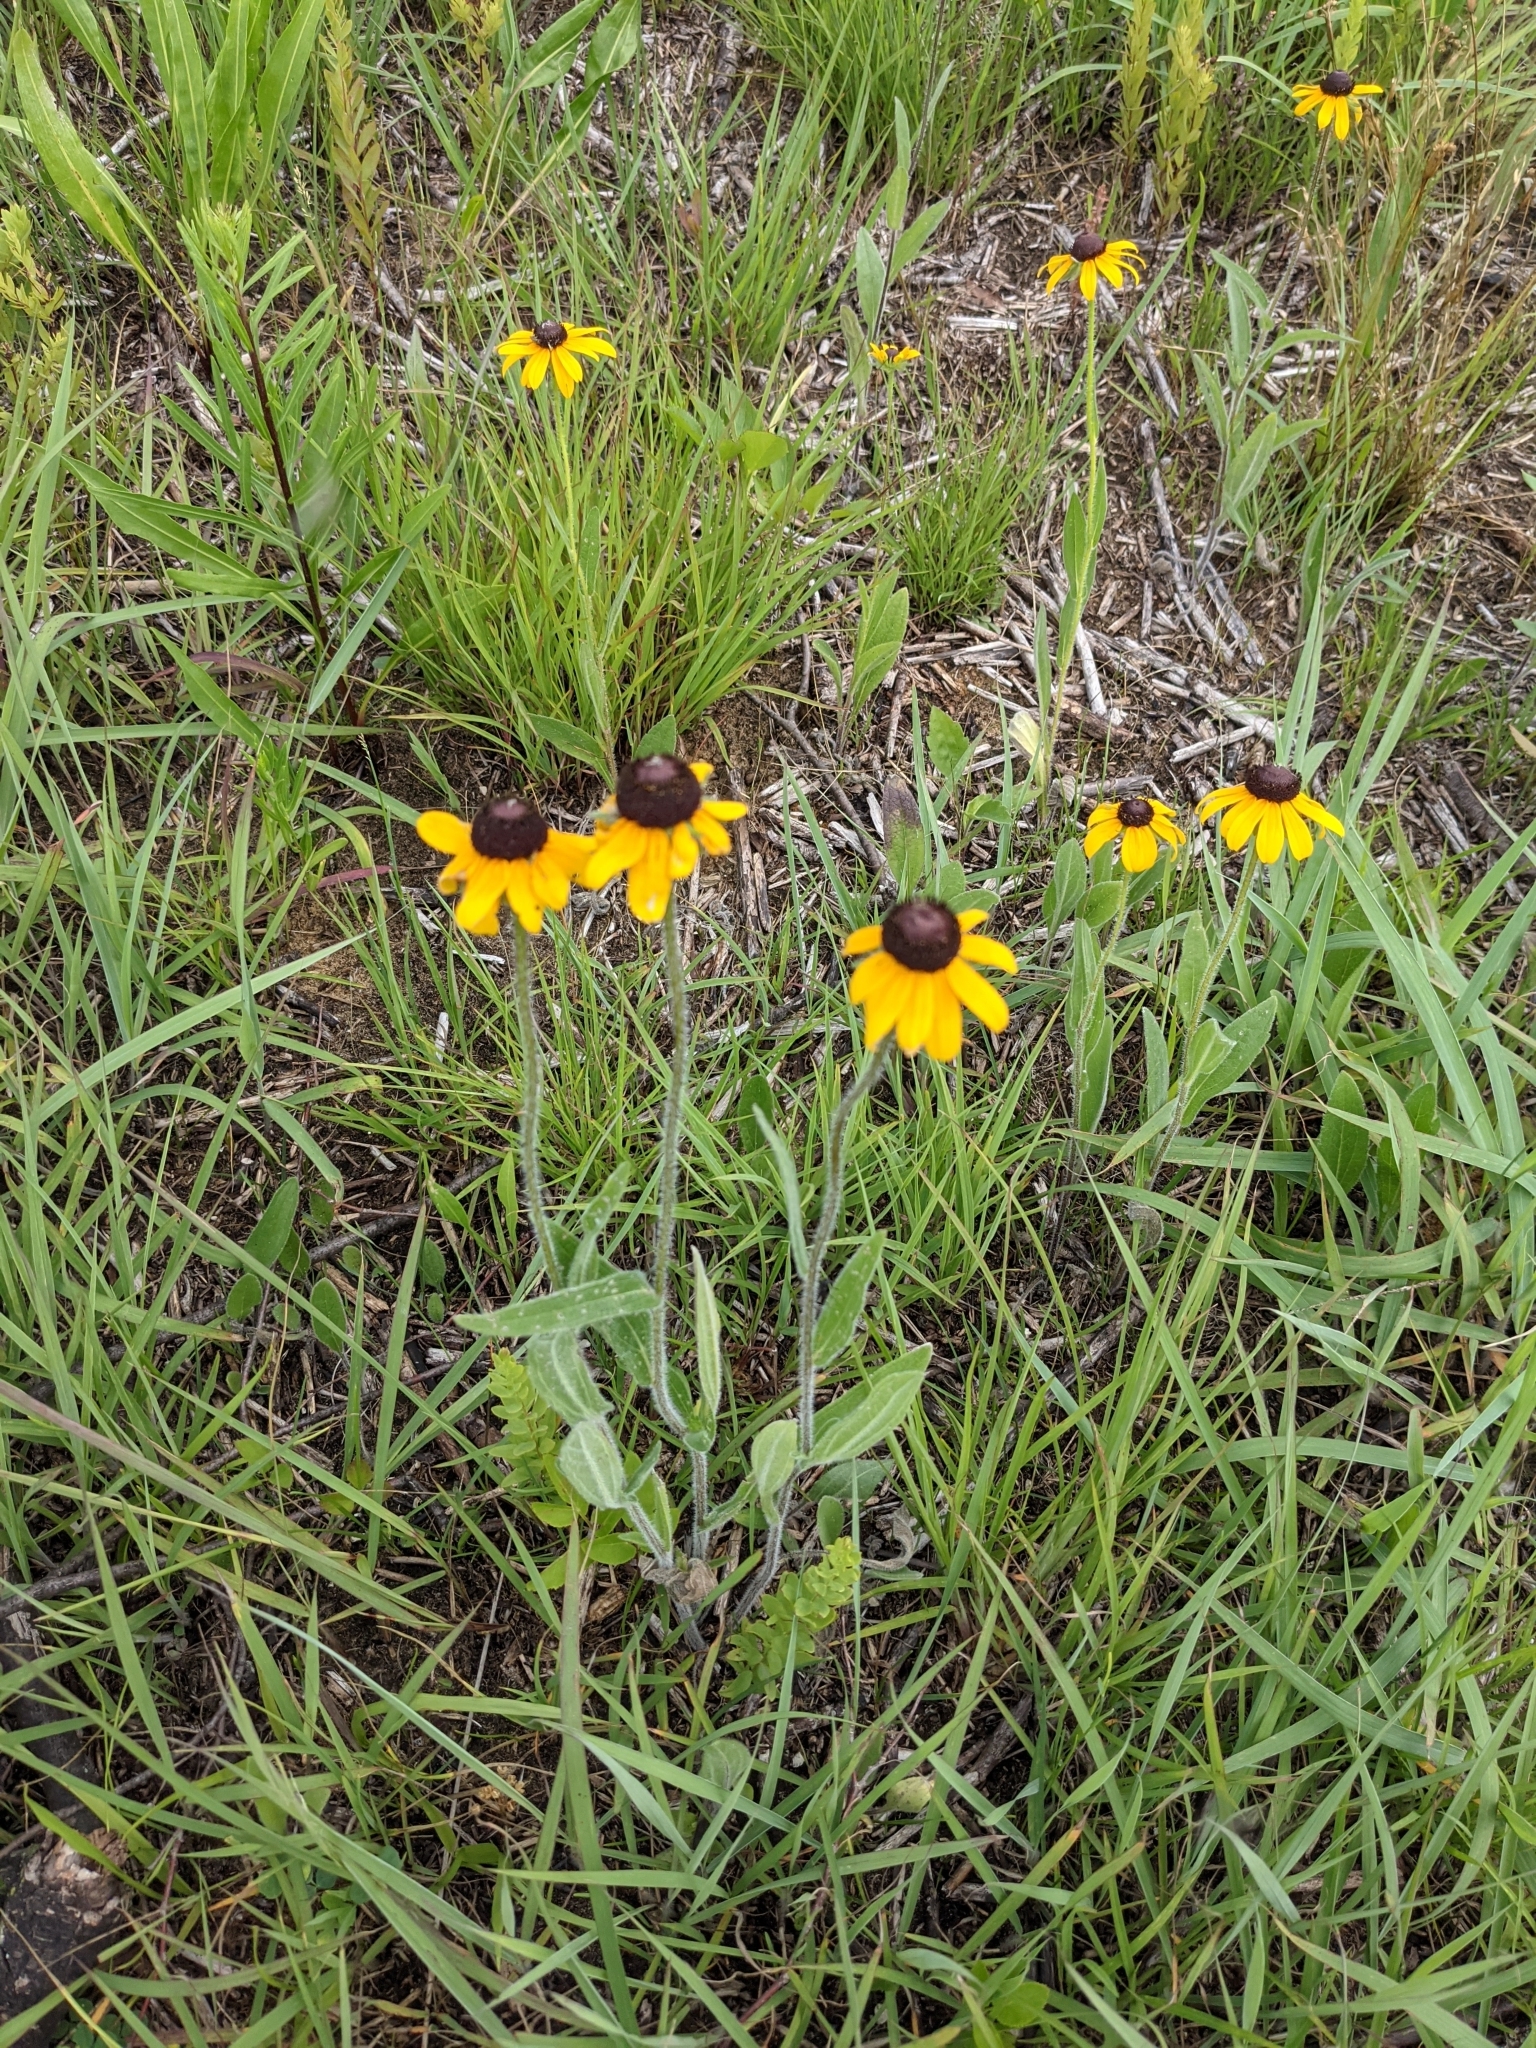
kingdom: Plantae
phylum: Tracheophyta
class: Magnoliopsida
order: Asterales
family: Asteraceae
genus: Rudbeckia
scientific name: Rudbeckia hirta
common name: Black-eyed-susan
